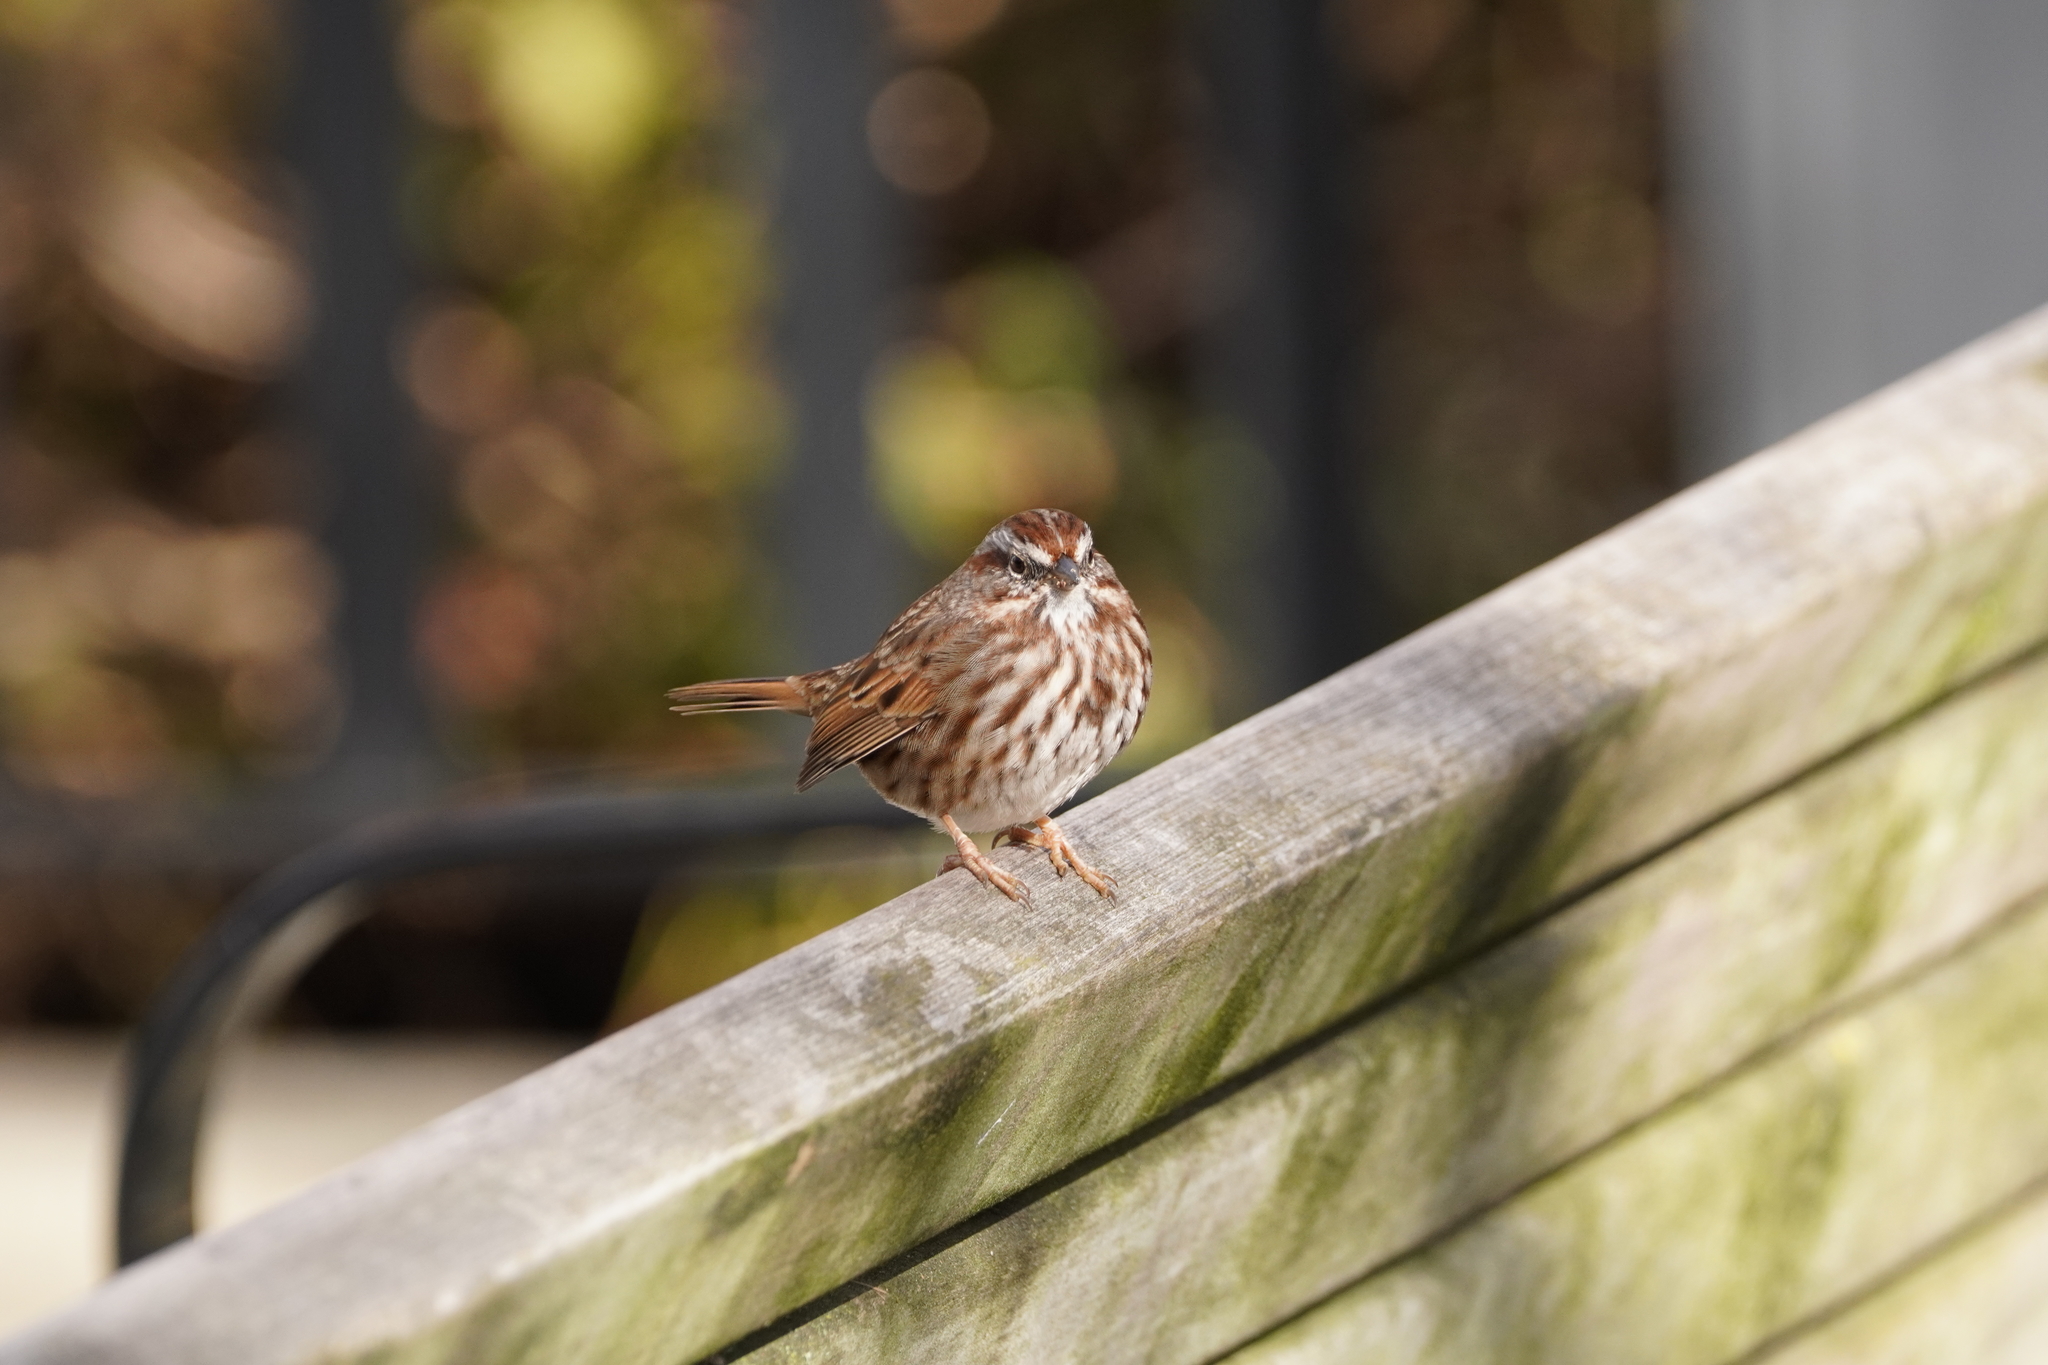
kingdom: Animalia
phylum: Chordata
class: Aves
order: Passeriformes
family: Passerellidae
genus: Melospiza
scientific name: Melospiza melodia
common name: Song sparrow
